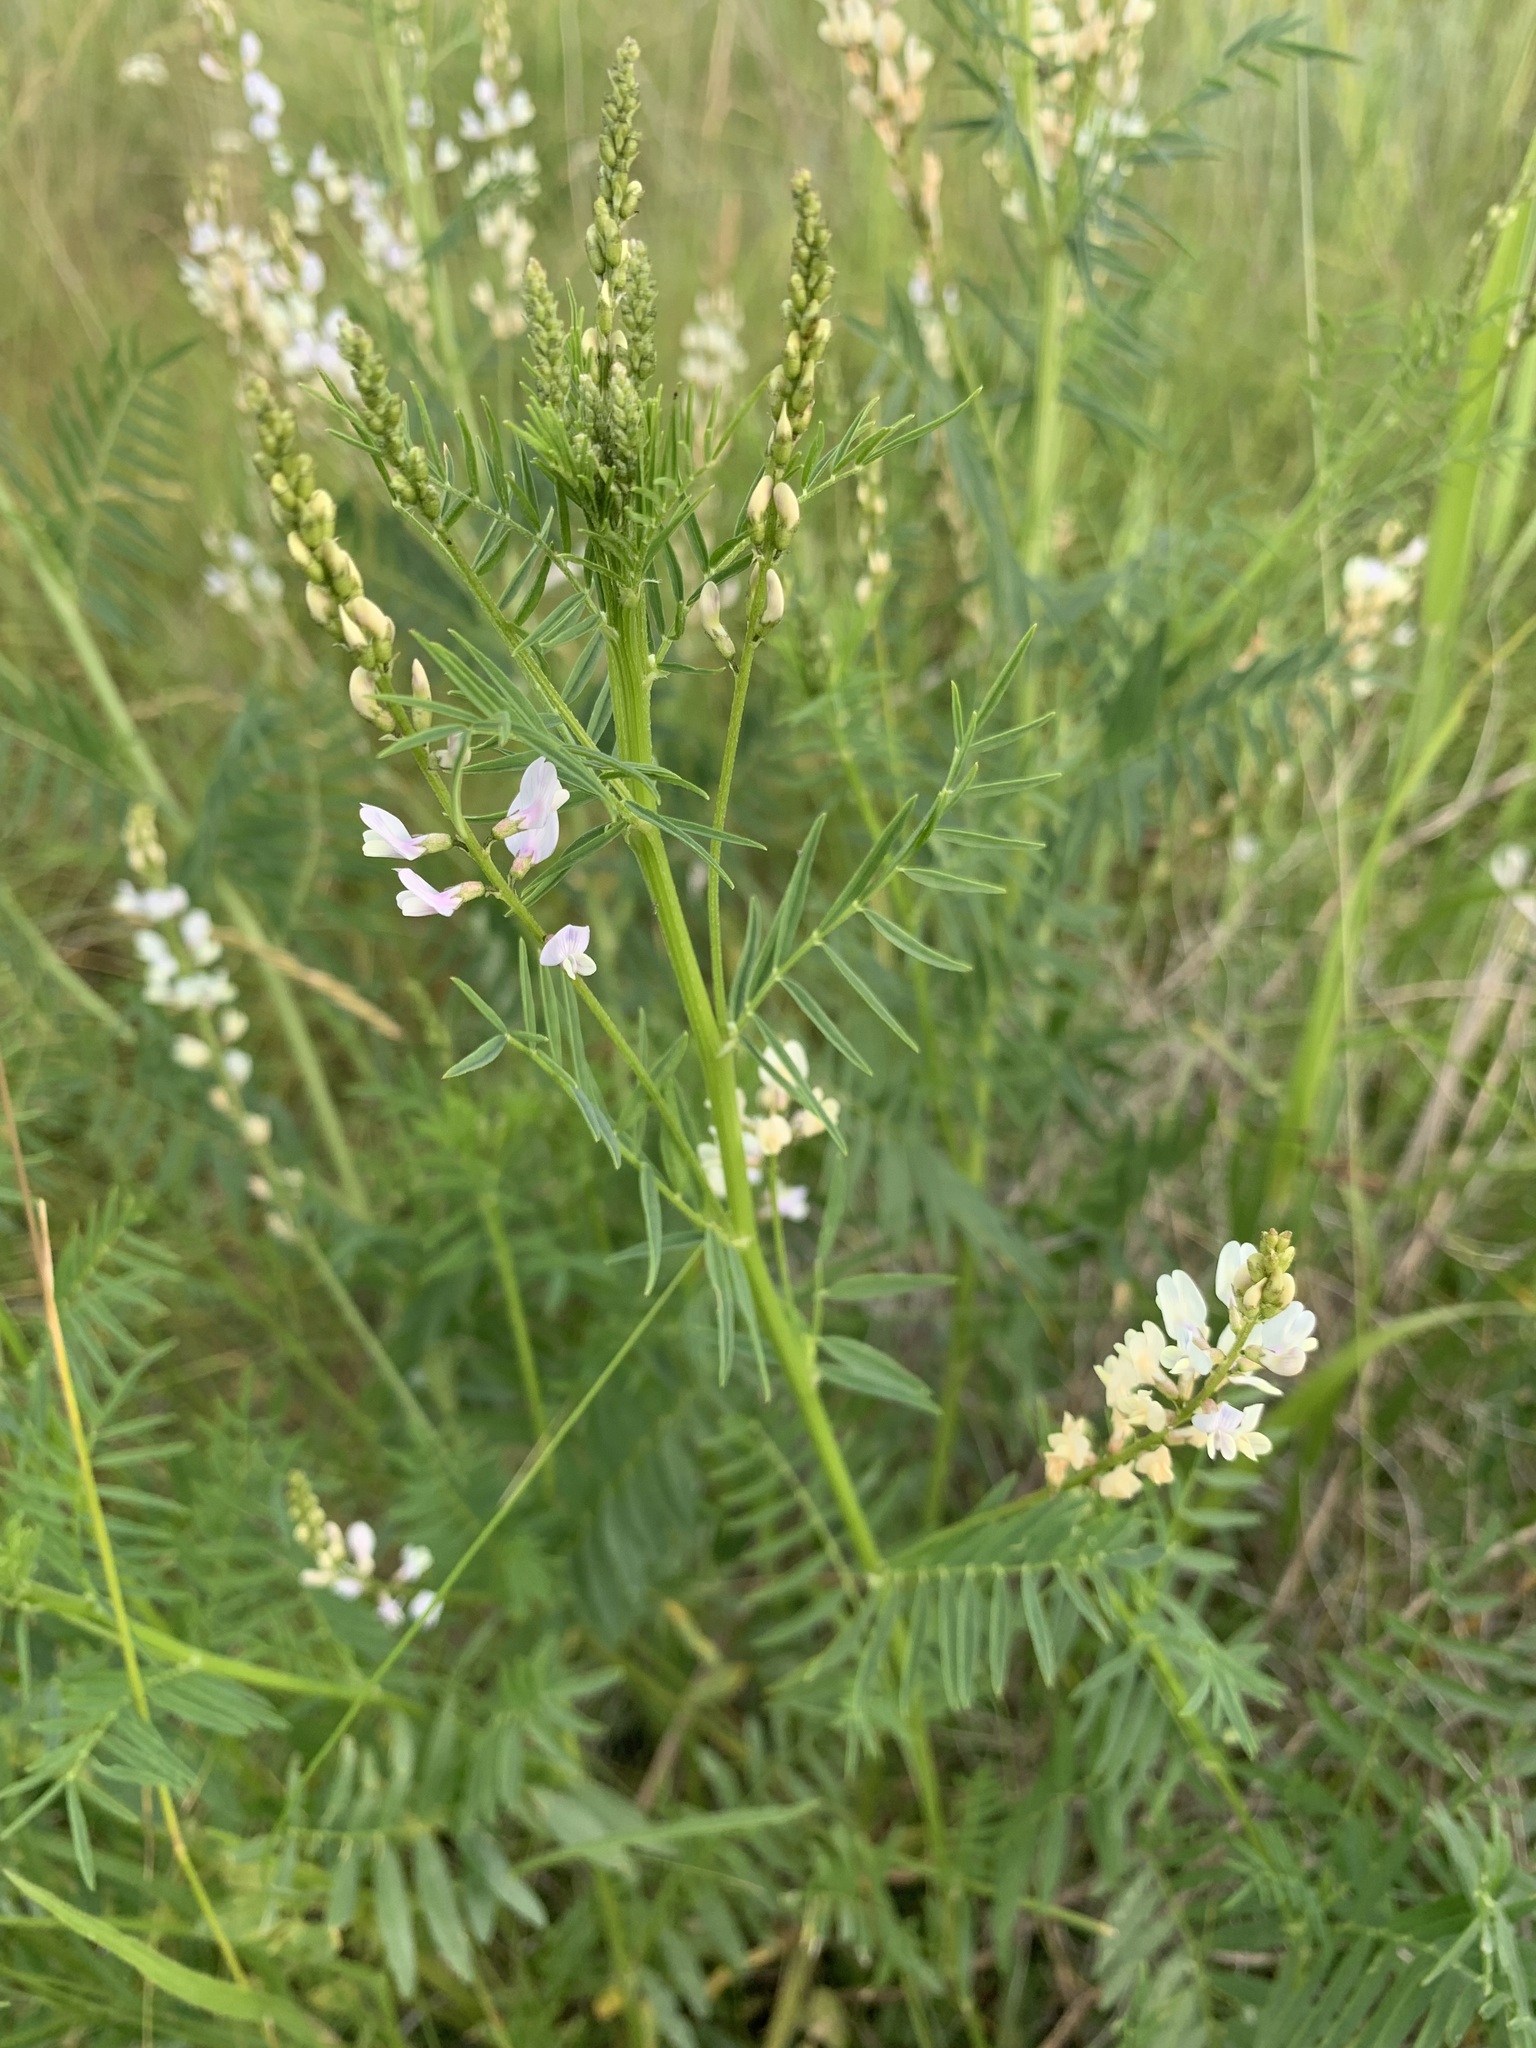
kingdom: Plantae
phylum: Tracheophyta
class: Magnoliopsida
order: Fabales
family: Fabaceae
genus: Astragalus
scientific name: Astragalus sulcatus
